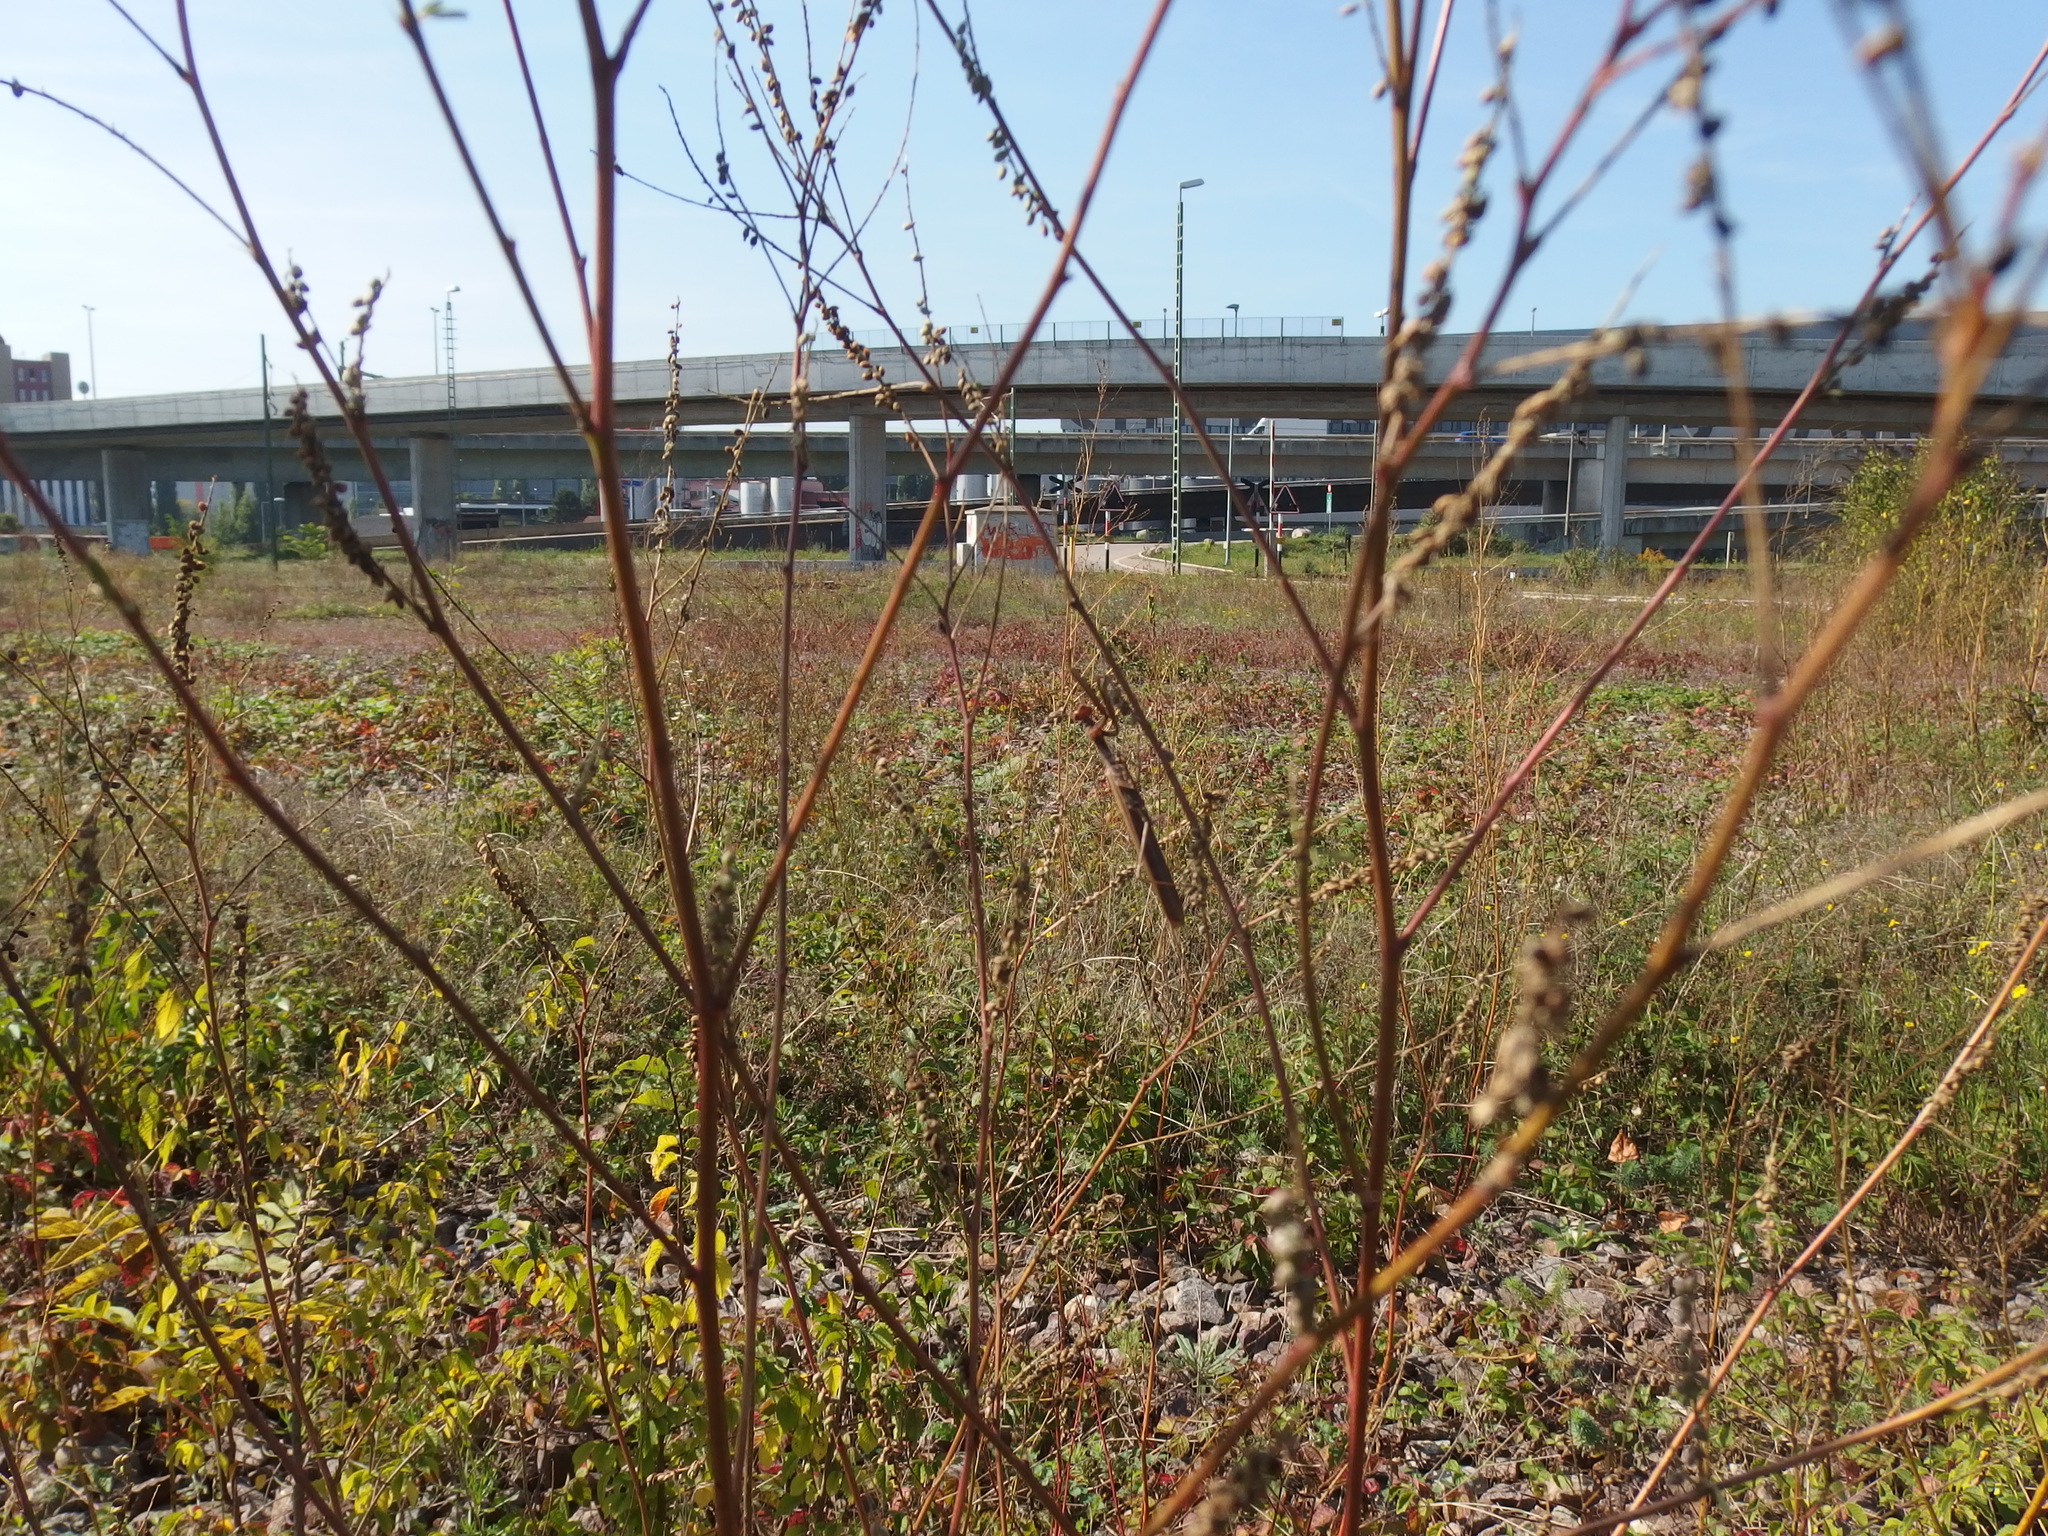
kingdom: Animalia
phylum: Arthropoda
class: Insecta
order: Mantodea
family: Mantidae
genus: Mantis
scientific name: Mantis religiosa
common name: Praying mantis
